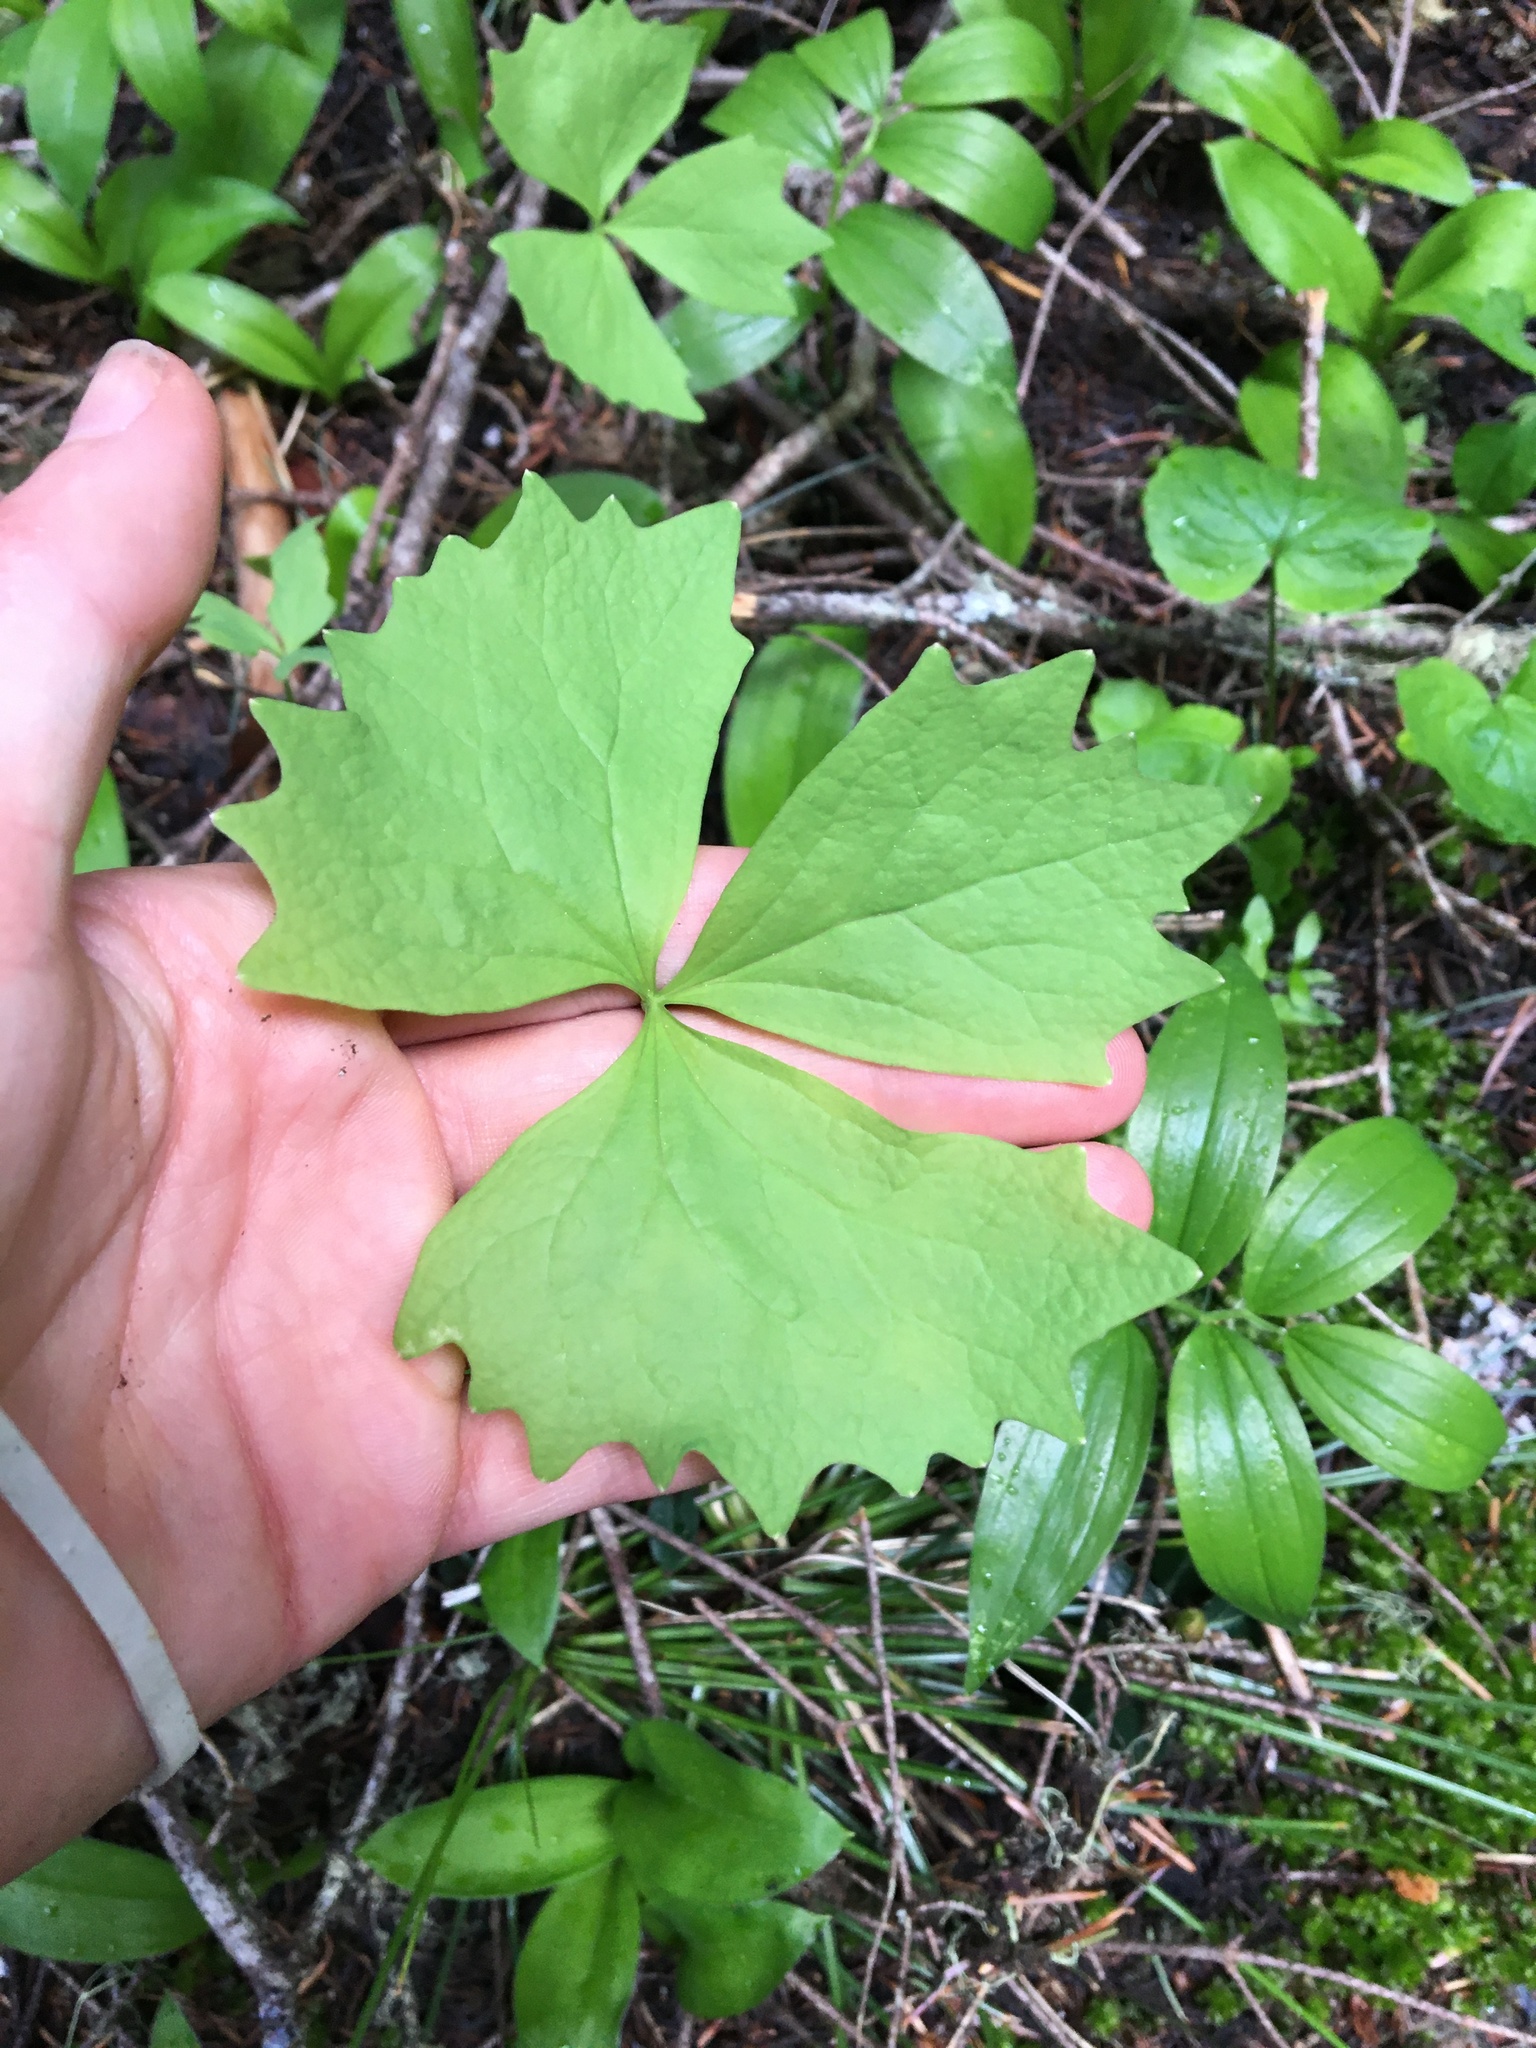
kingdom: Plantae
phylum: Tracheophyta
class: Magnoliopsida
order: Ranunculales
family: Berberidaceae
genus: Achlys
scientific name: Achlys triphylla
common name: Vanilla-leaf
